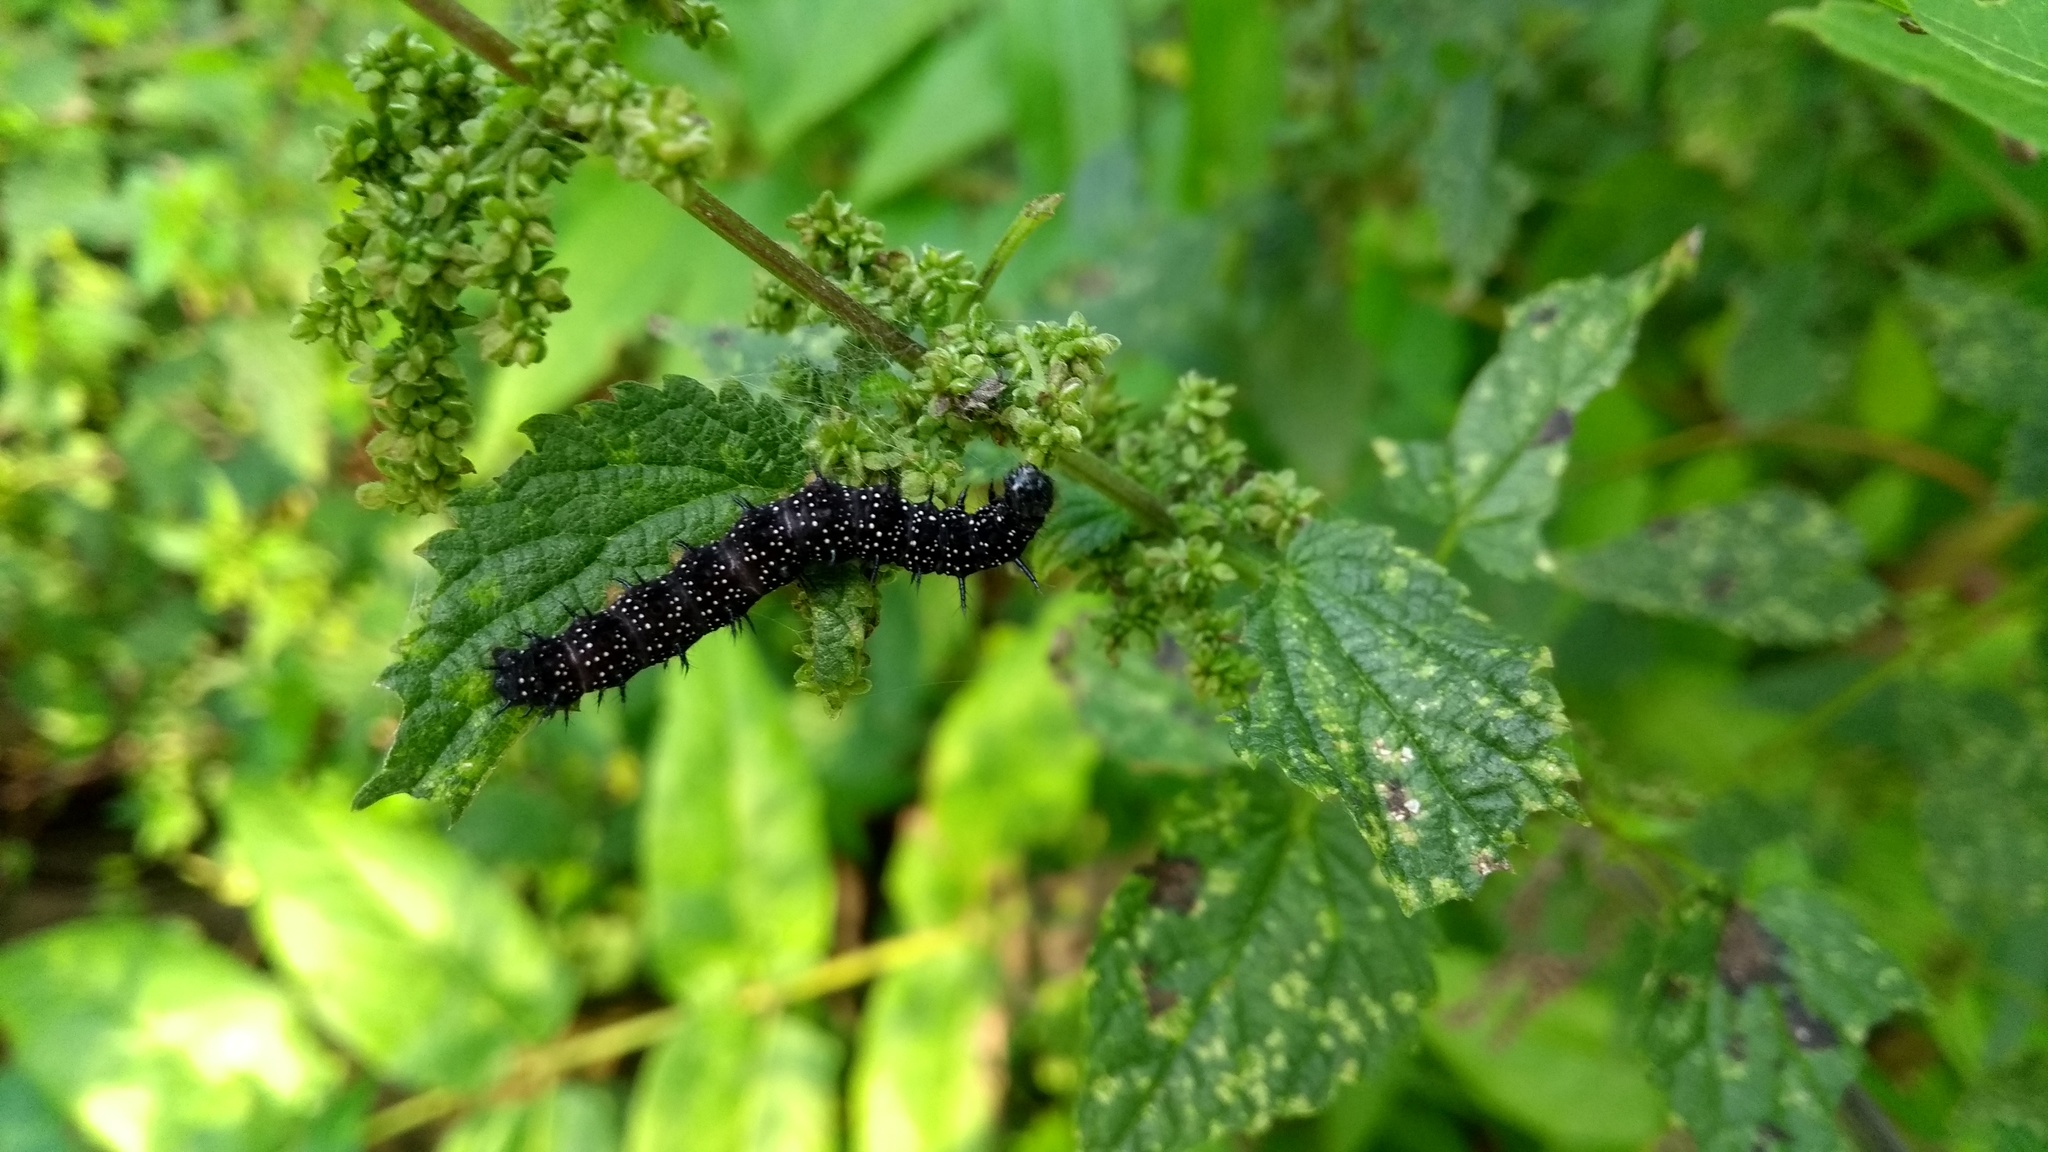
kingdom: Animalia
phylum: Arthropoda
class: Insecta
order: Lepidoptera
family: Nymphalidae
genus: Aglais
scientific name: Aglais io
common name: Peacock
